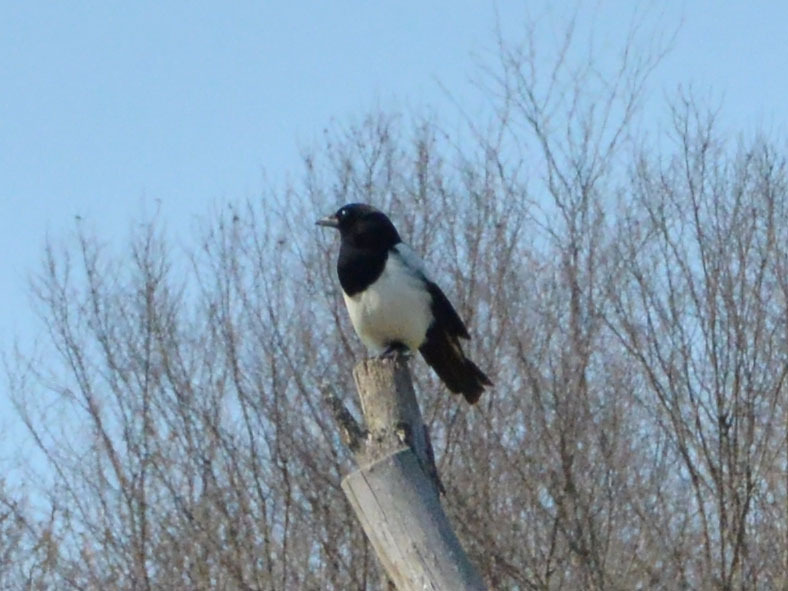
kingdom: Animalia
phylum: Chordata
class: Aves
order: Passeriformes
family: Corvidae
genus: Pica
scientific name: Pica pica
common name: Eurasian magpie
